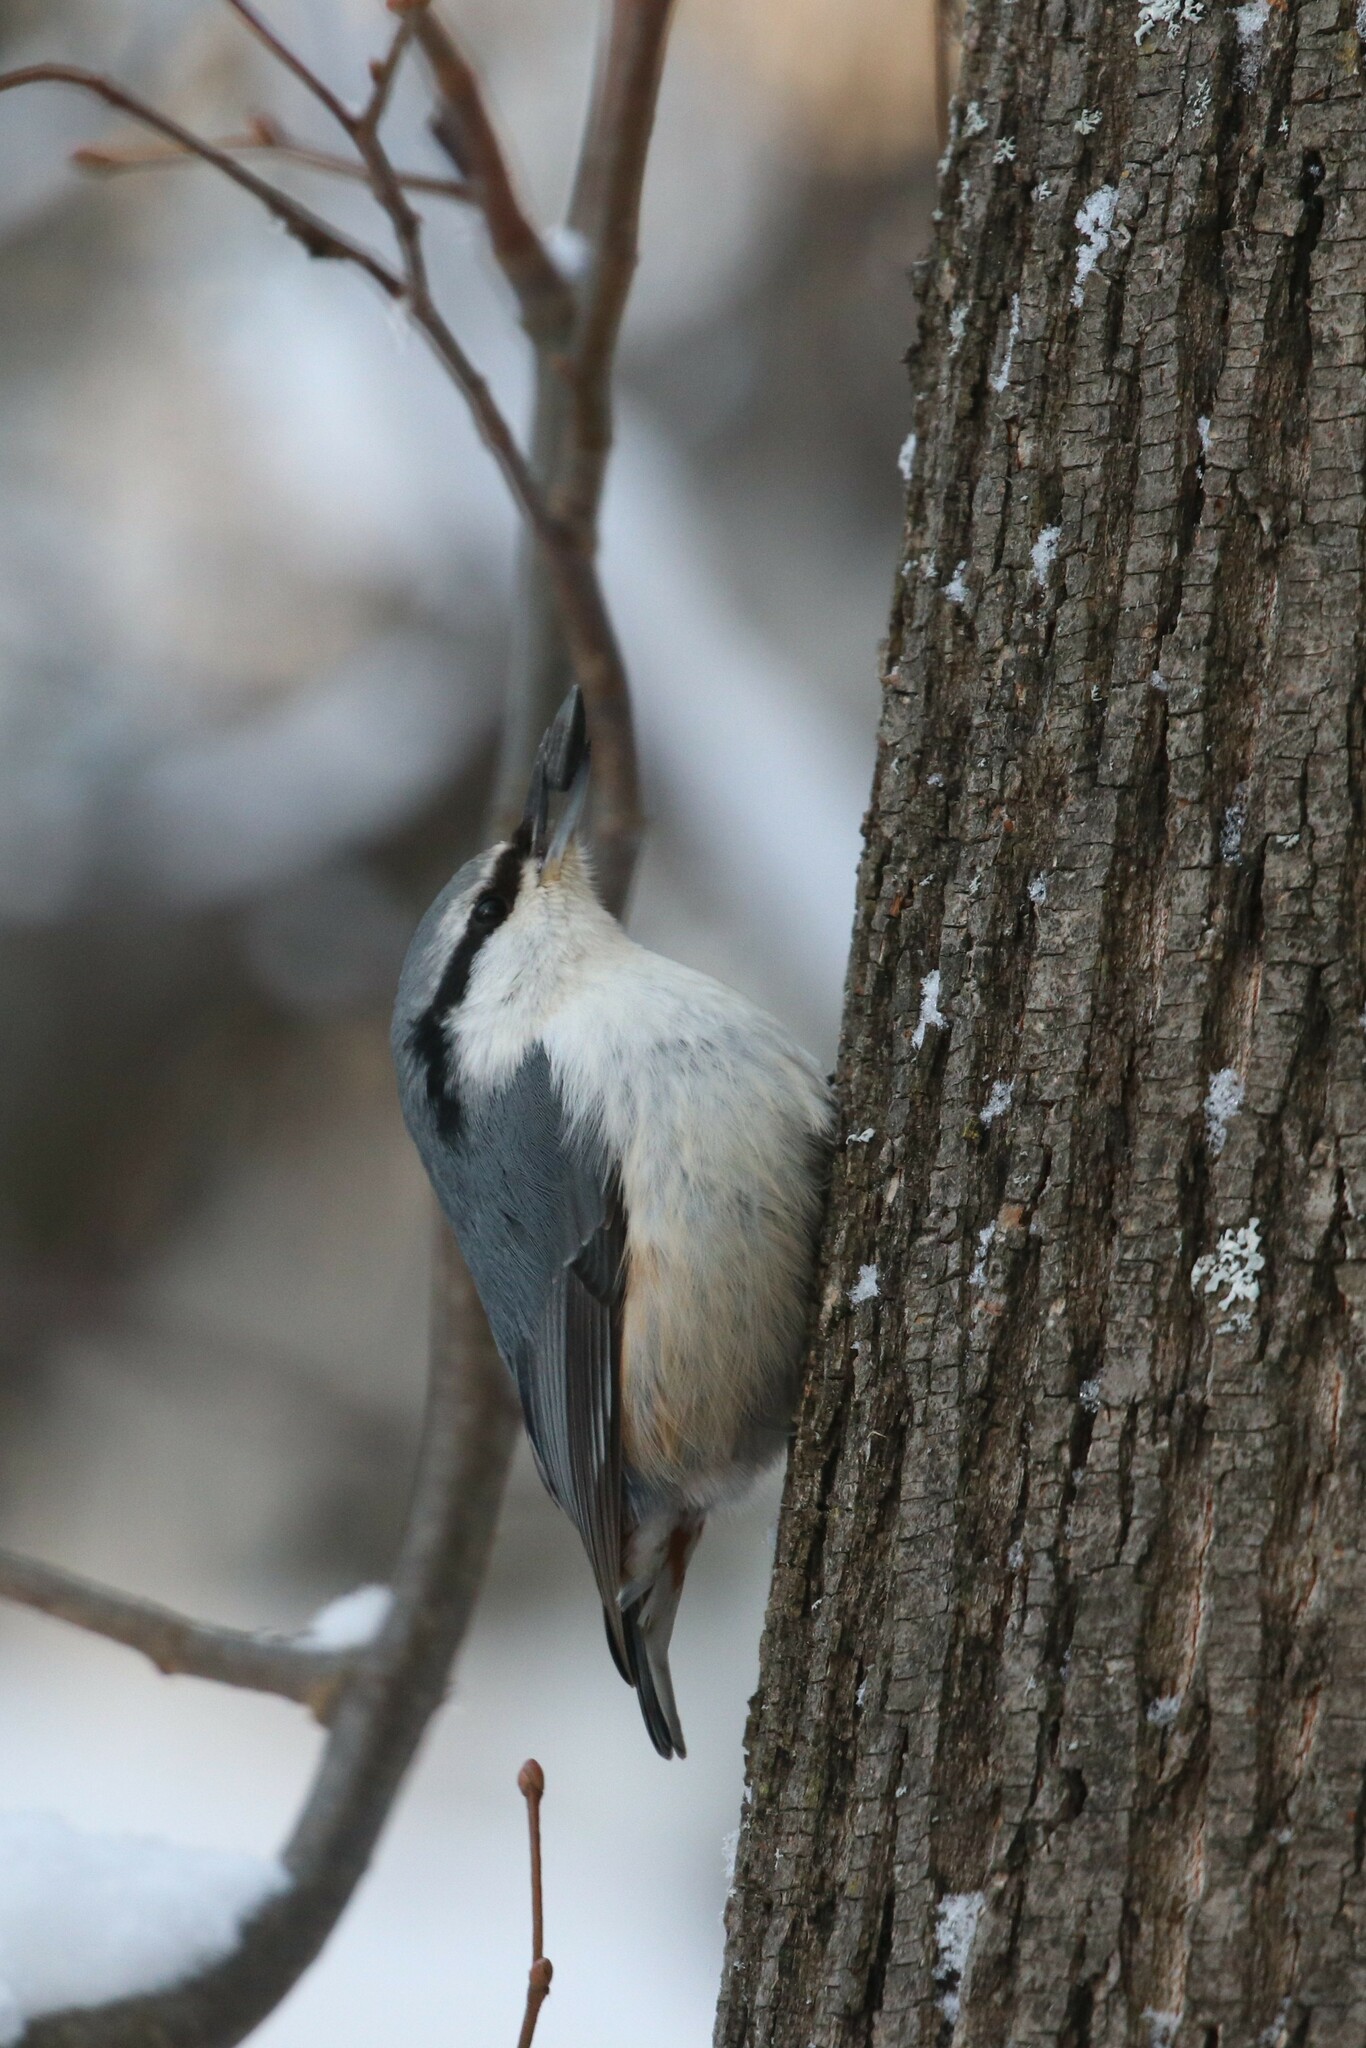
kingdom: Animalia
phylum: Chordata
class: Aves
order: Passeriformes
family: Sittidae
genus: Sitta
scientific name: Sitta europaea
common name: Eurasian nuthatch
